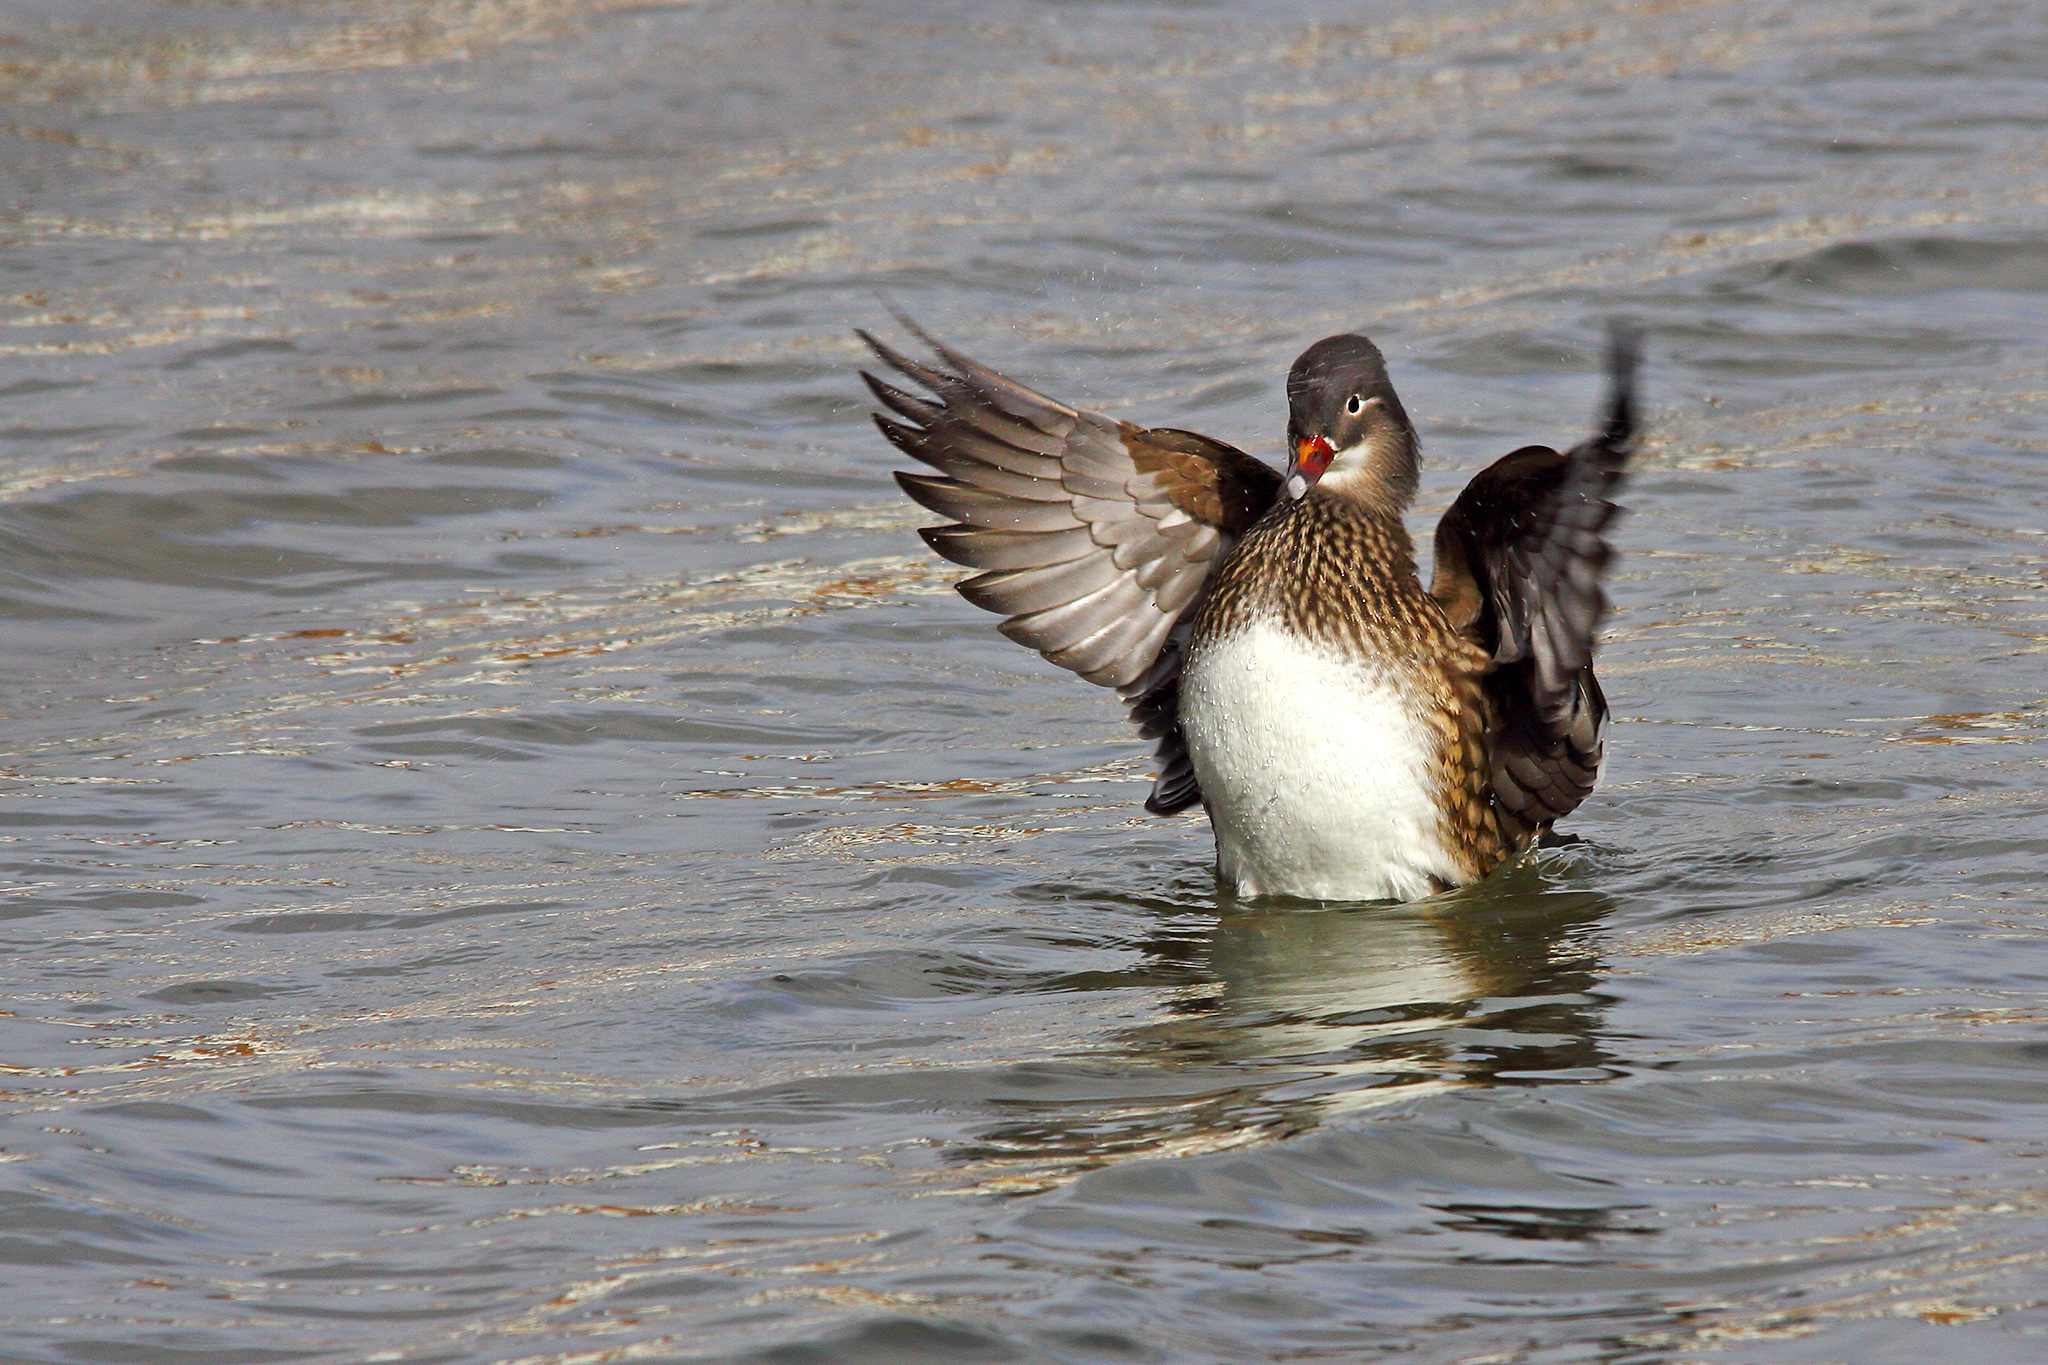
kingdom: Animalia
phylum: Chordata
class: Aves
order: Anseriformes
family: Anatidae
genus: Aix
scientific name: Aix galericulata
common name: Mandarin duck
